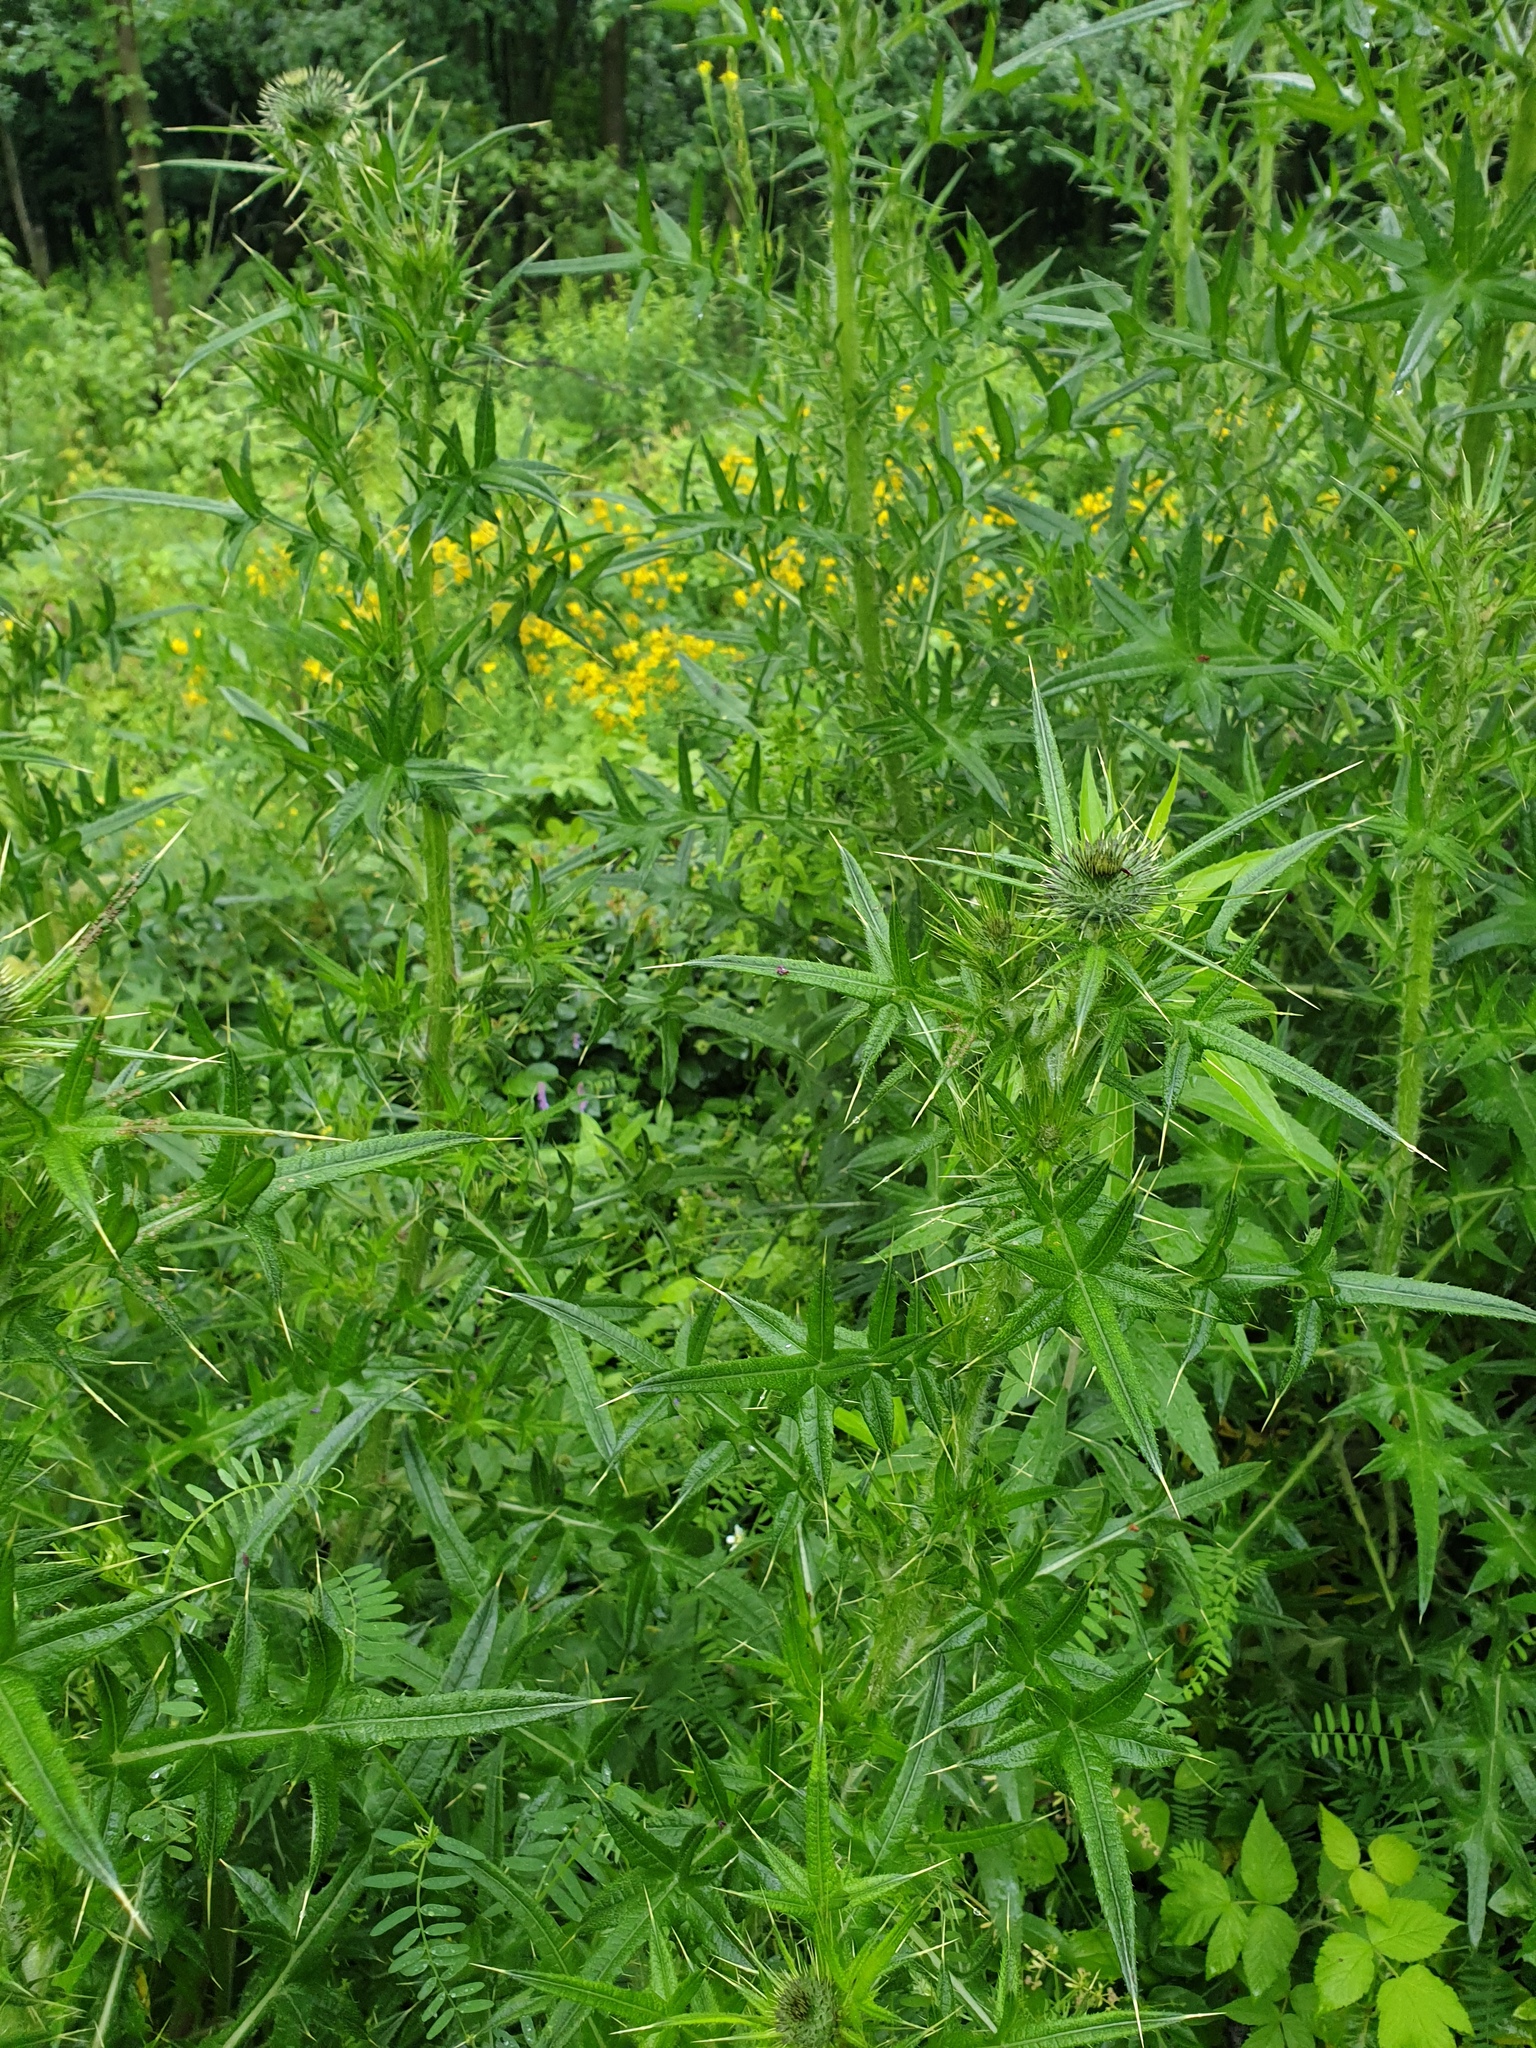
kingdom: Plantae
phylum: Tracheophyta
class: Magnoliopsida
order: Asterales
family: Asteraceae
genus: Cirsium
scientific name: Cirsium vulgare
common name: Bull thistle
